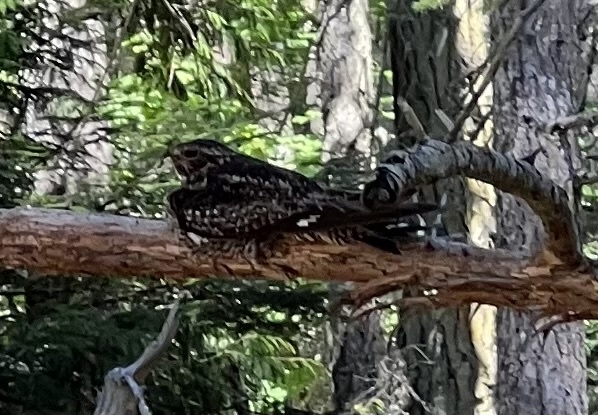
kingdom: Animalia
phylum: Chordata
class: Aves
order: Caprimulgiformes
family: Caprimulgidae
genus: Chordeiles
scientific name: Chordeiles minor
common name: Common nighthawk
